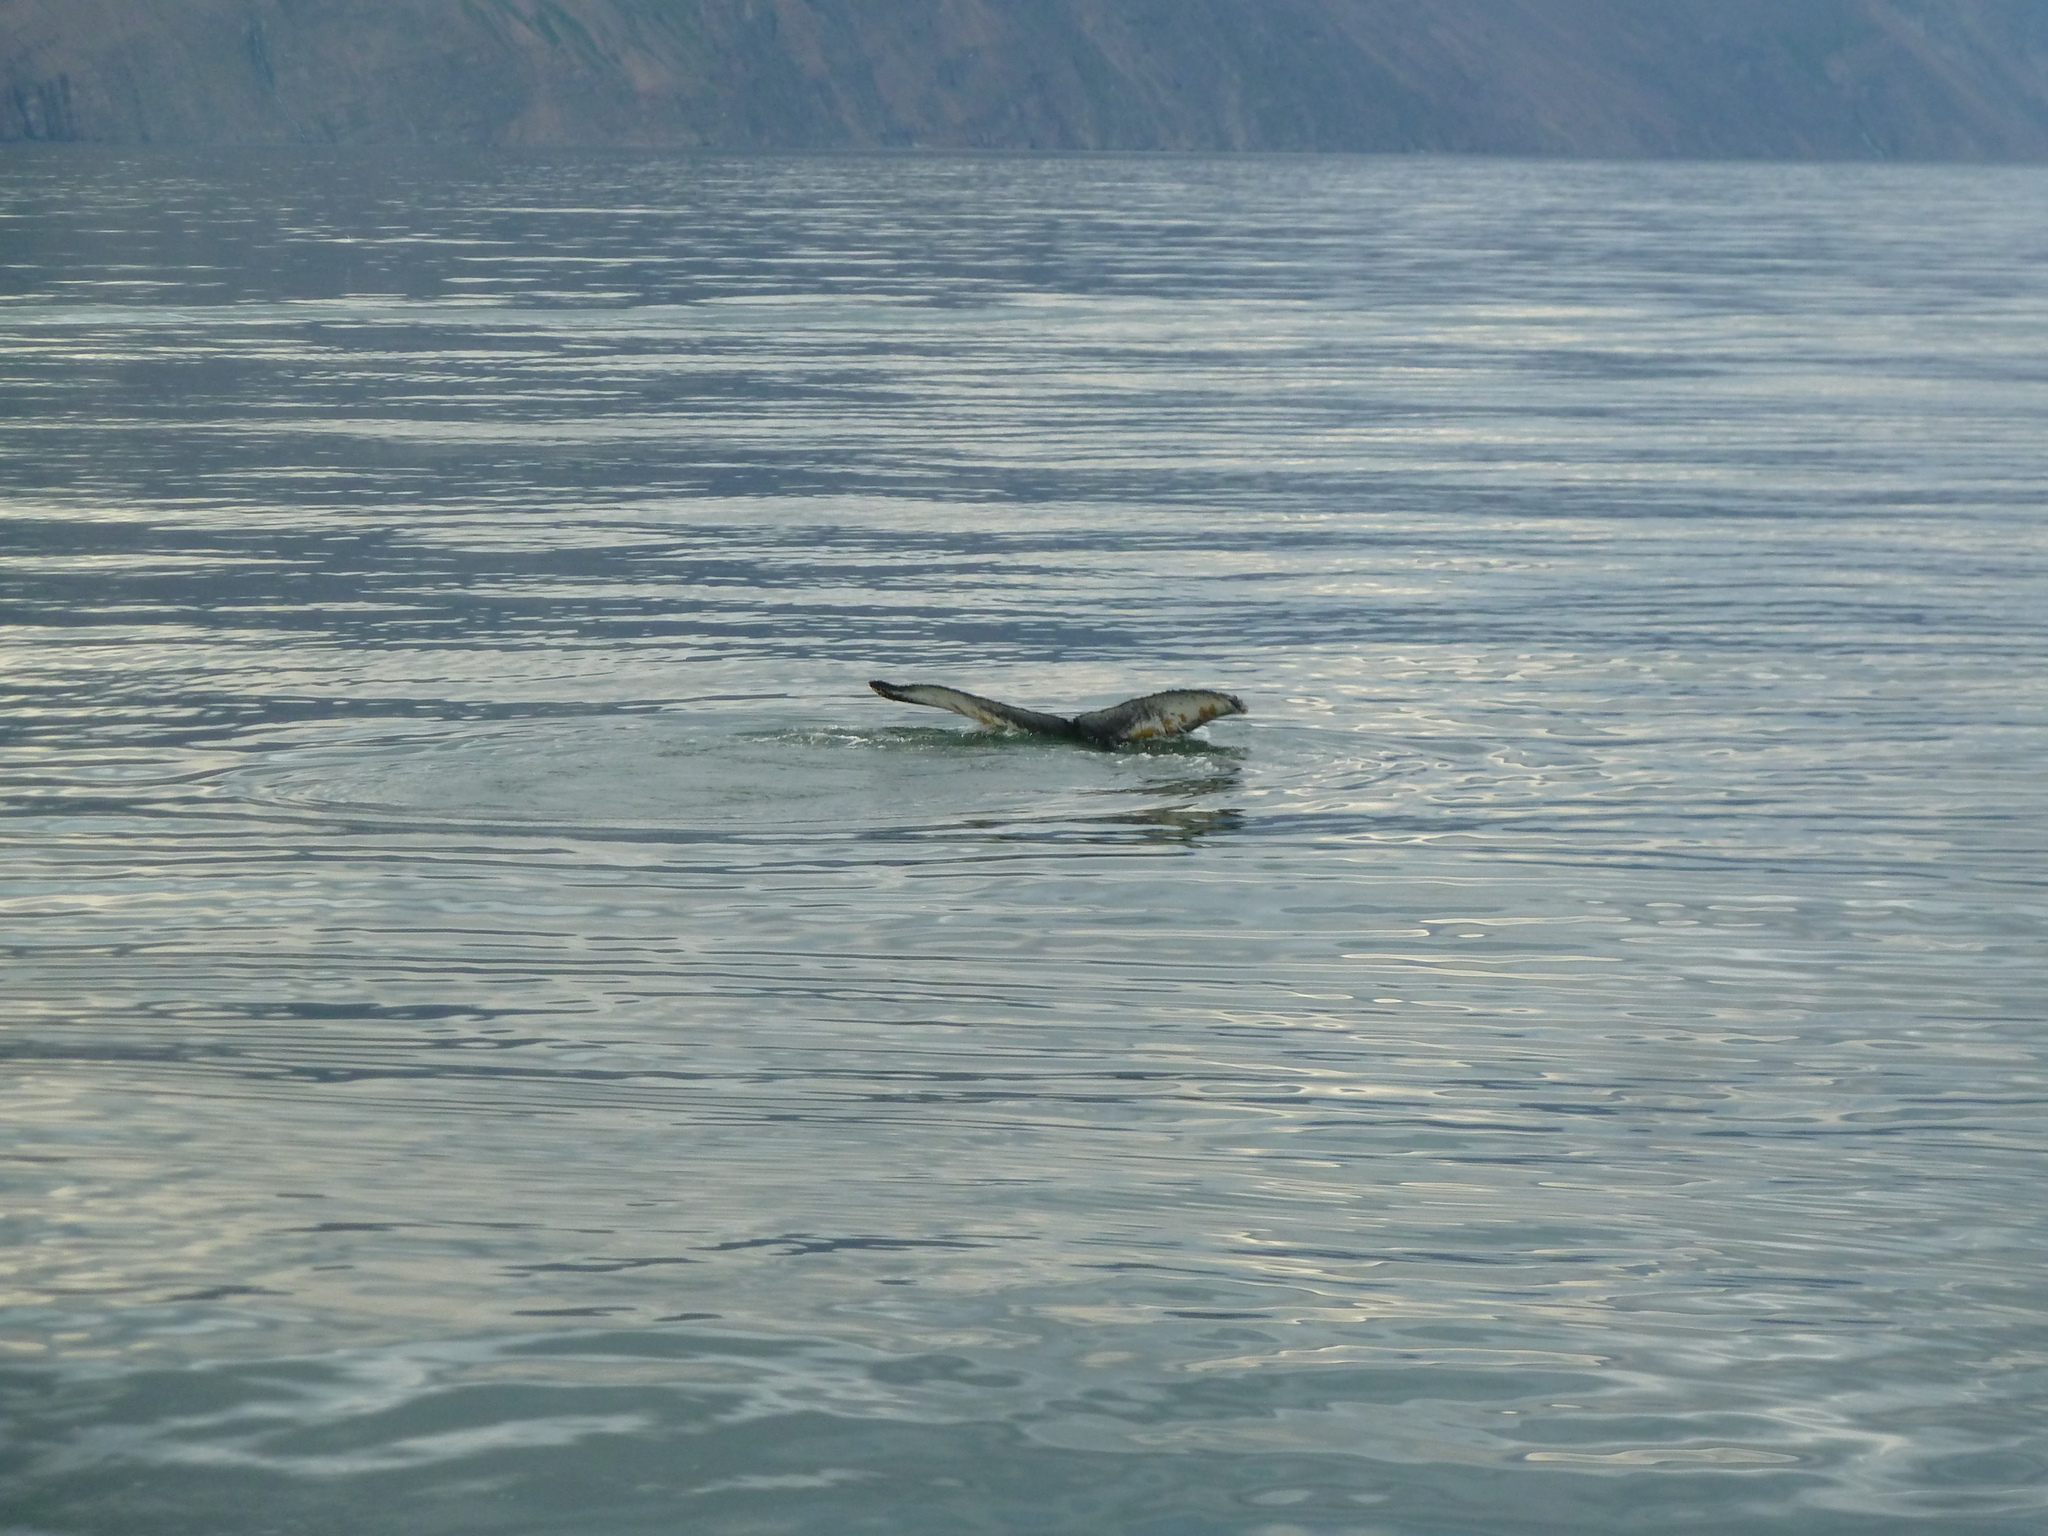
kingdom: Animalia
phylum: Chordata
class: Mammalia
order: Cetacea
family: Balaenopteridae
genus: Megaptera
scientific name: Megaptera novaeangliae
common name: Humpback whale
